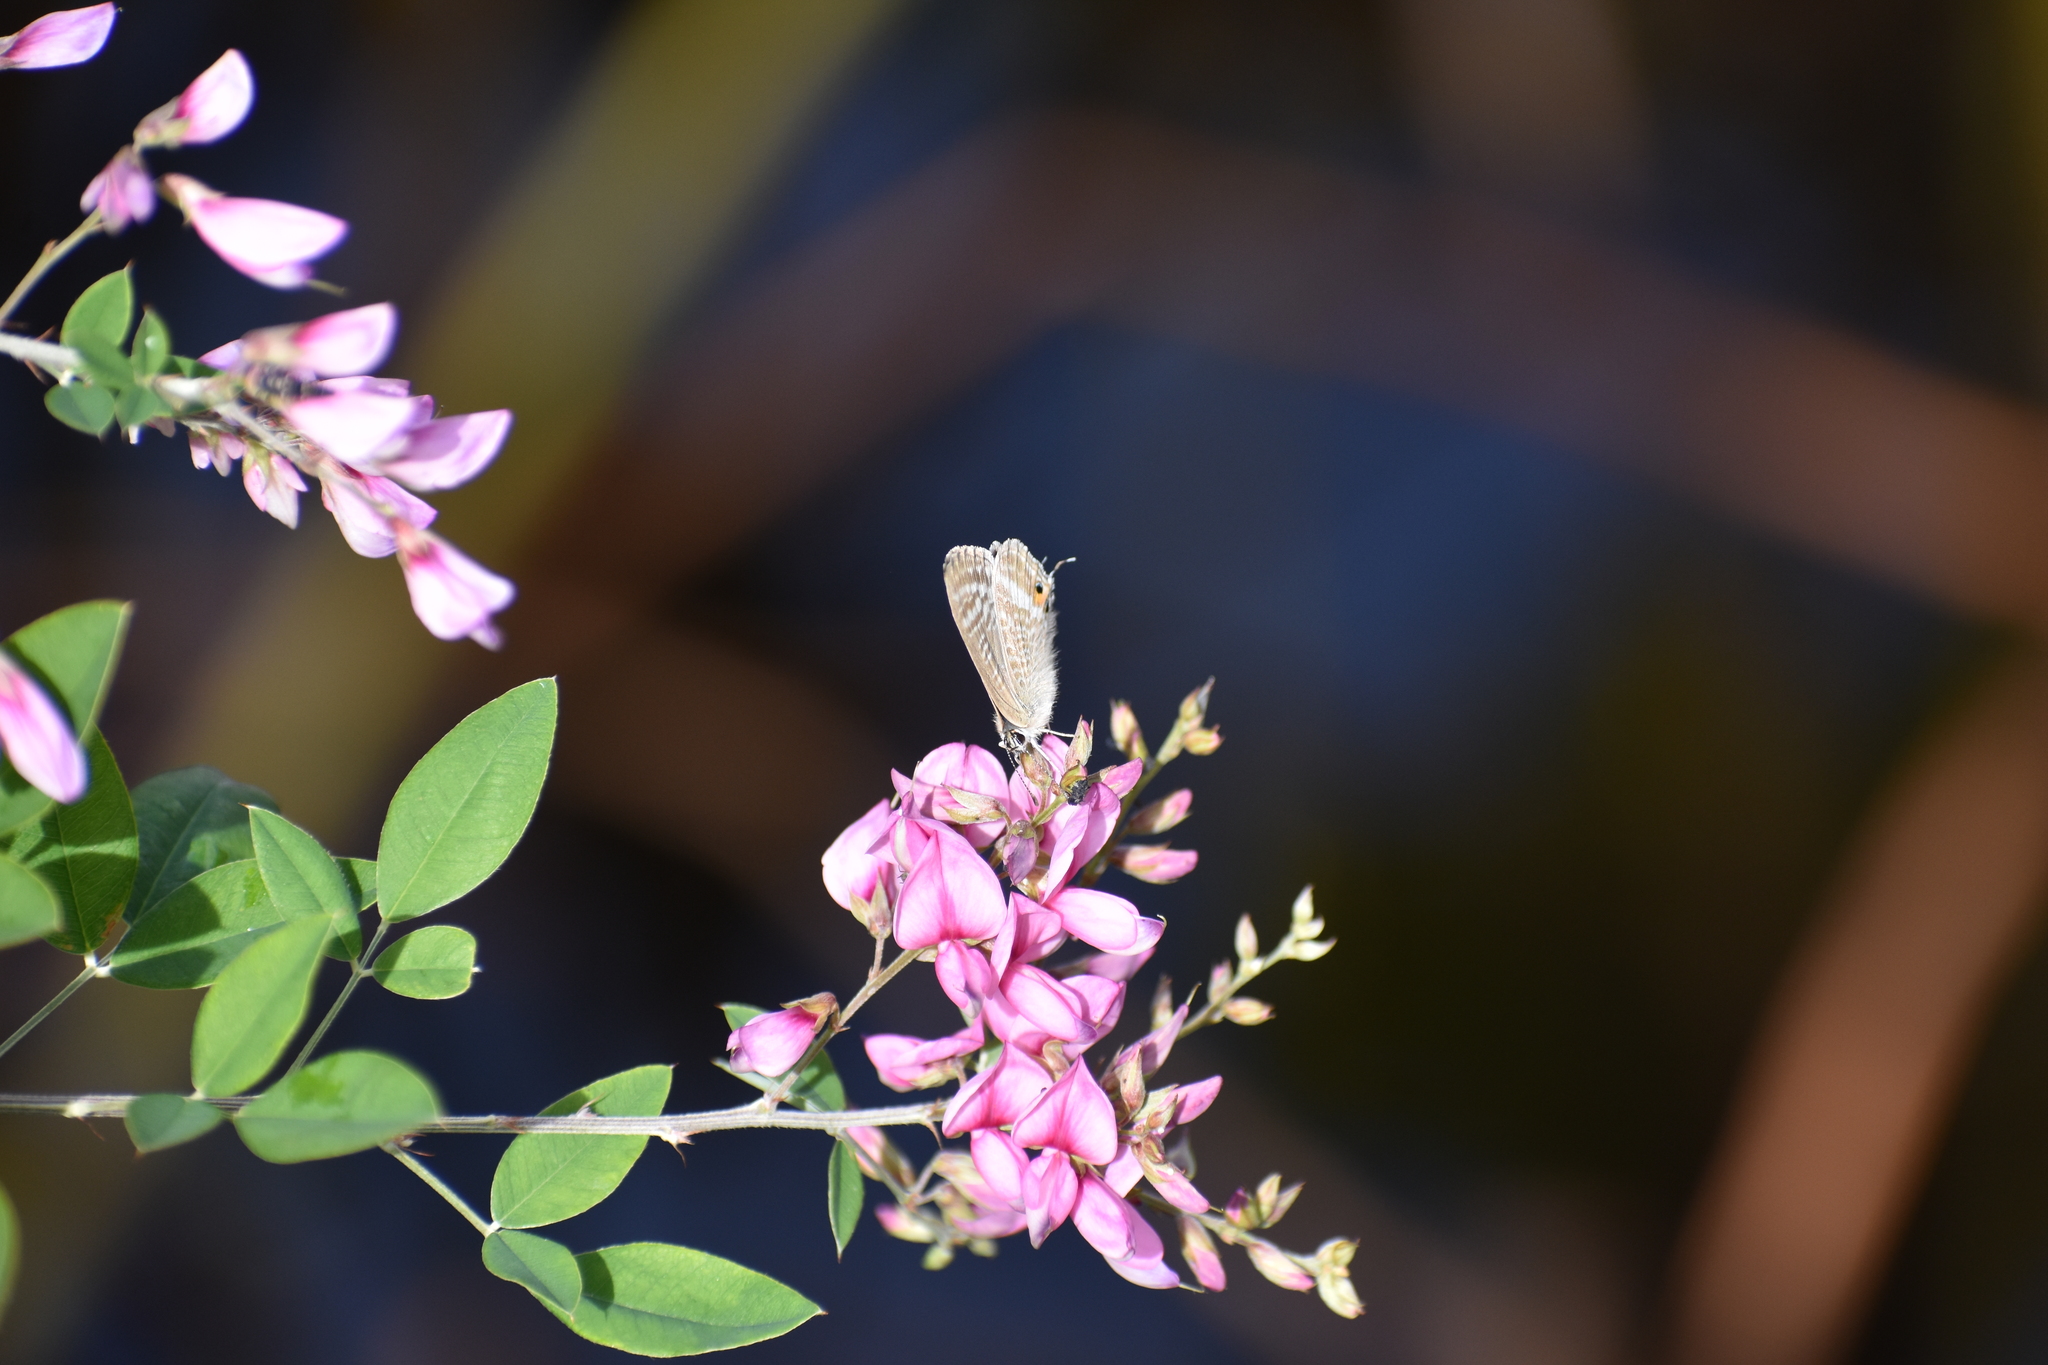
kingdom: Animalia
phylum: Arthropoda
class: Insecta
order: Lepidoptera
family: Lycaenidae
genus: Lampides
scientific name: Lampides boeticus
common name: Long-tailed blue
